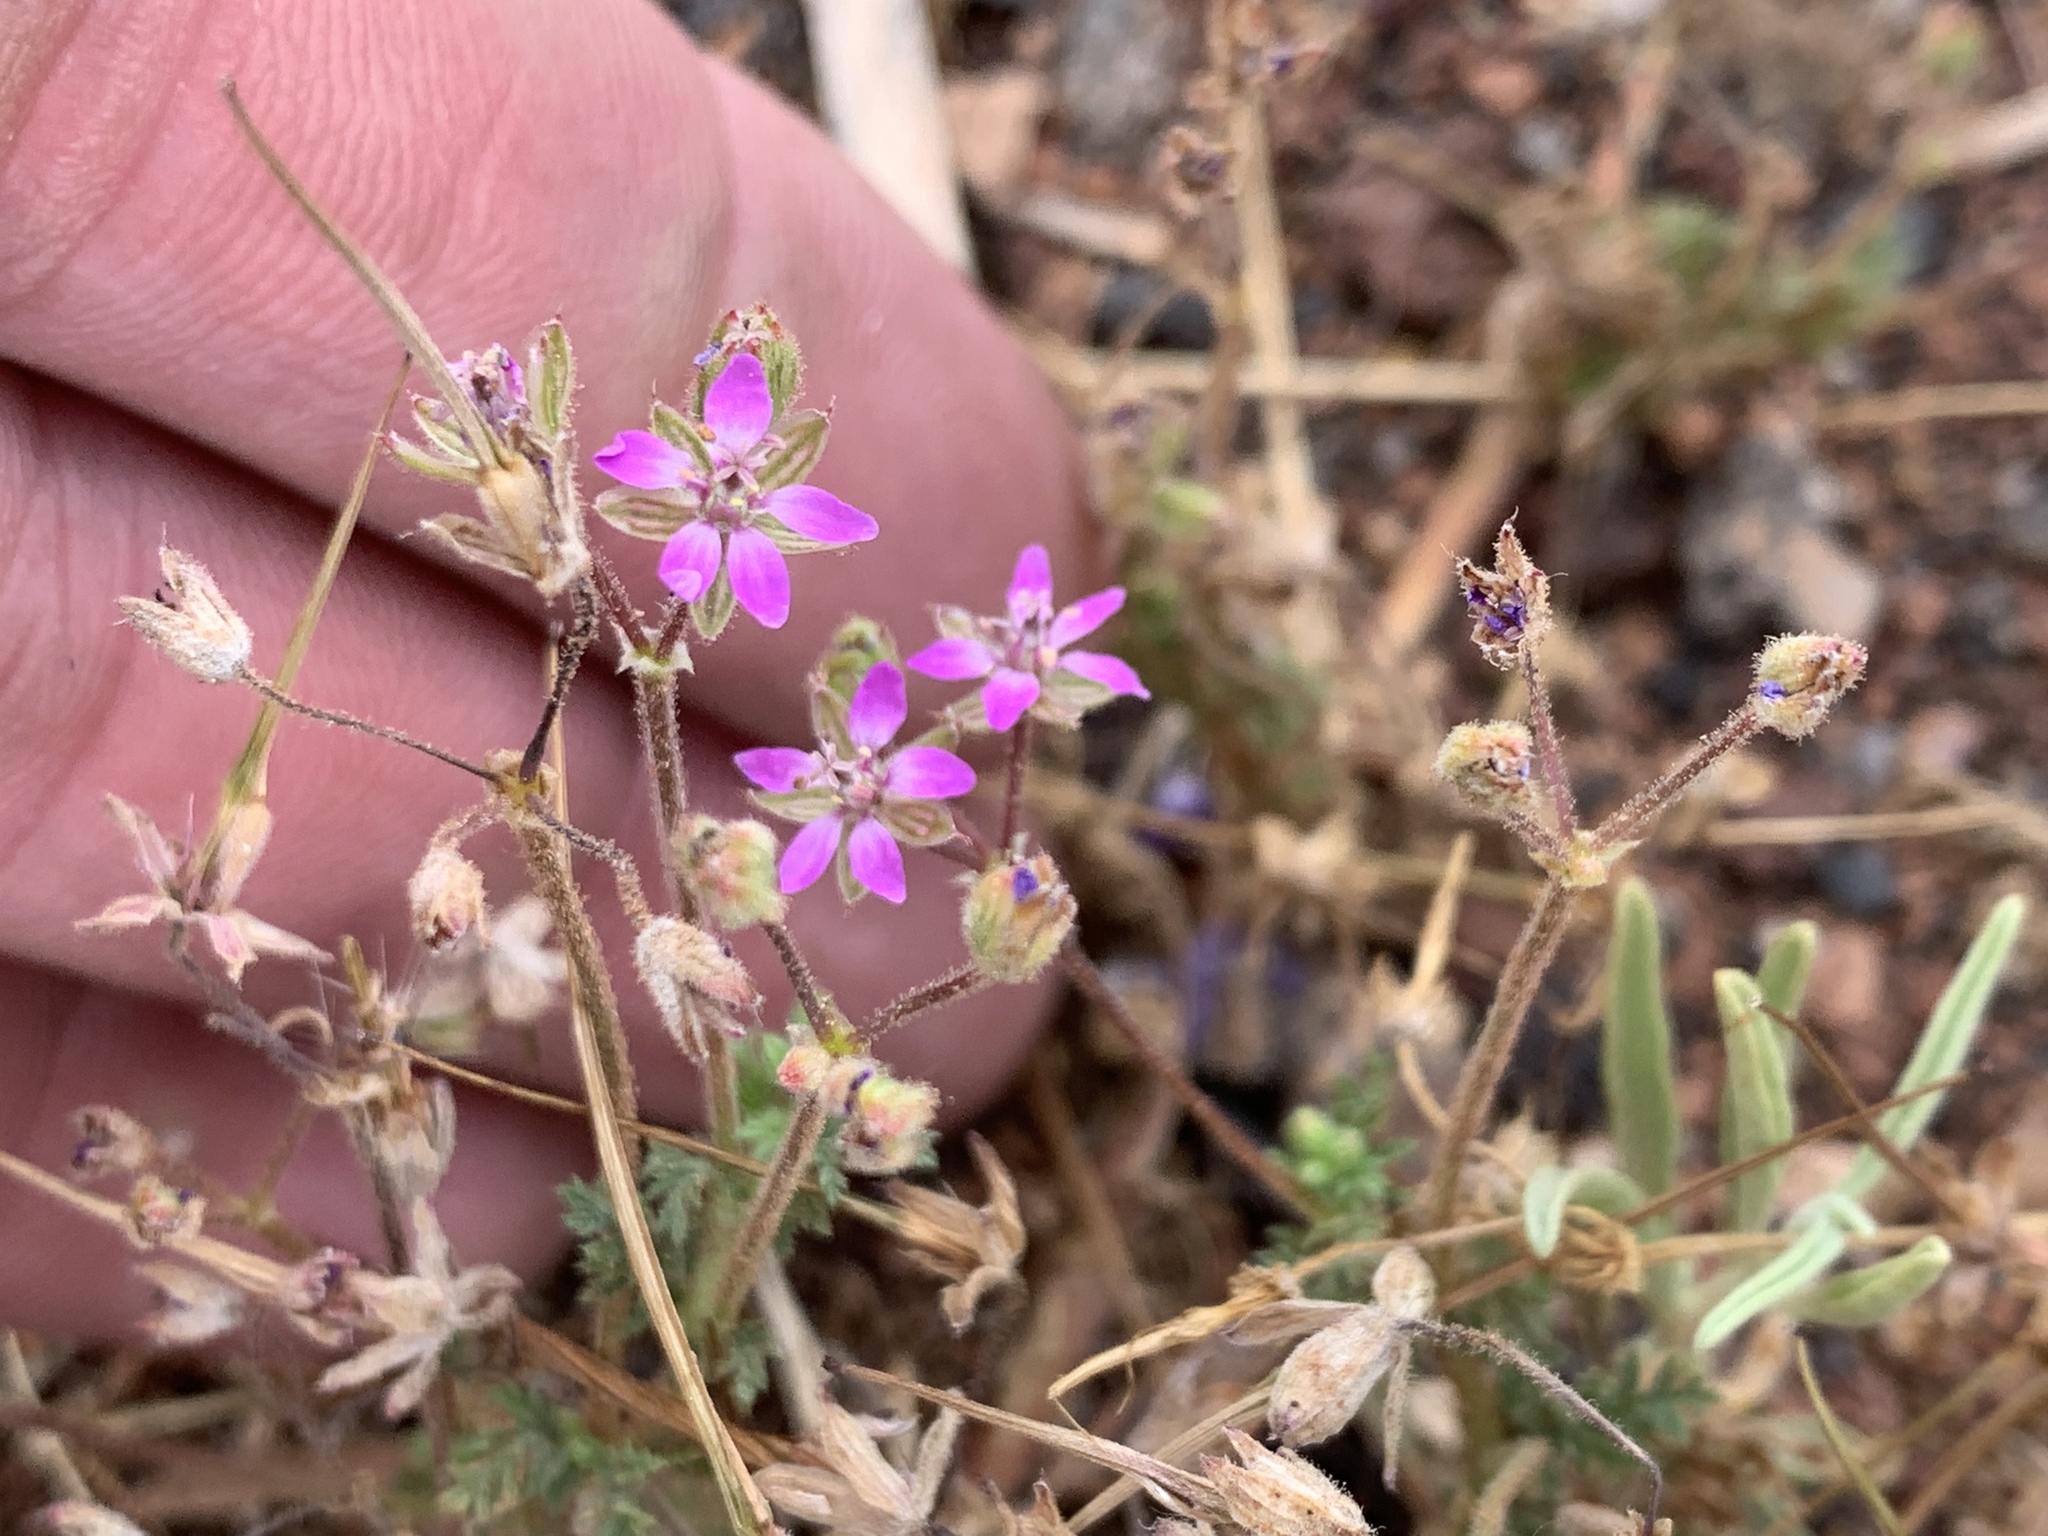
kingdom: Plantae
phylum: Tracheophyta
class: Magnoliopsida
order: Geraniales
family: Geraniaceae
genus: Erodium
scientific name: Erodium cicutarium
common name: Common stork's-bill
